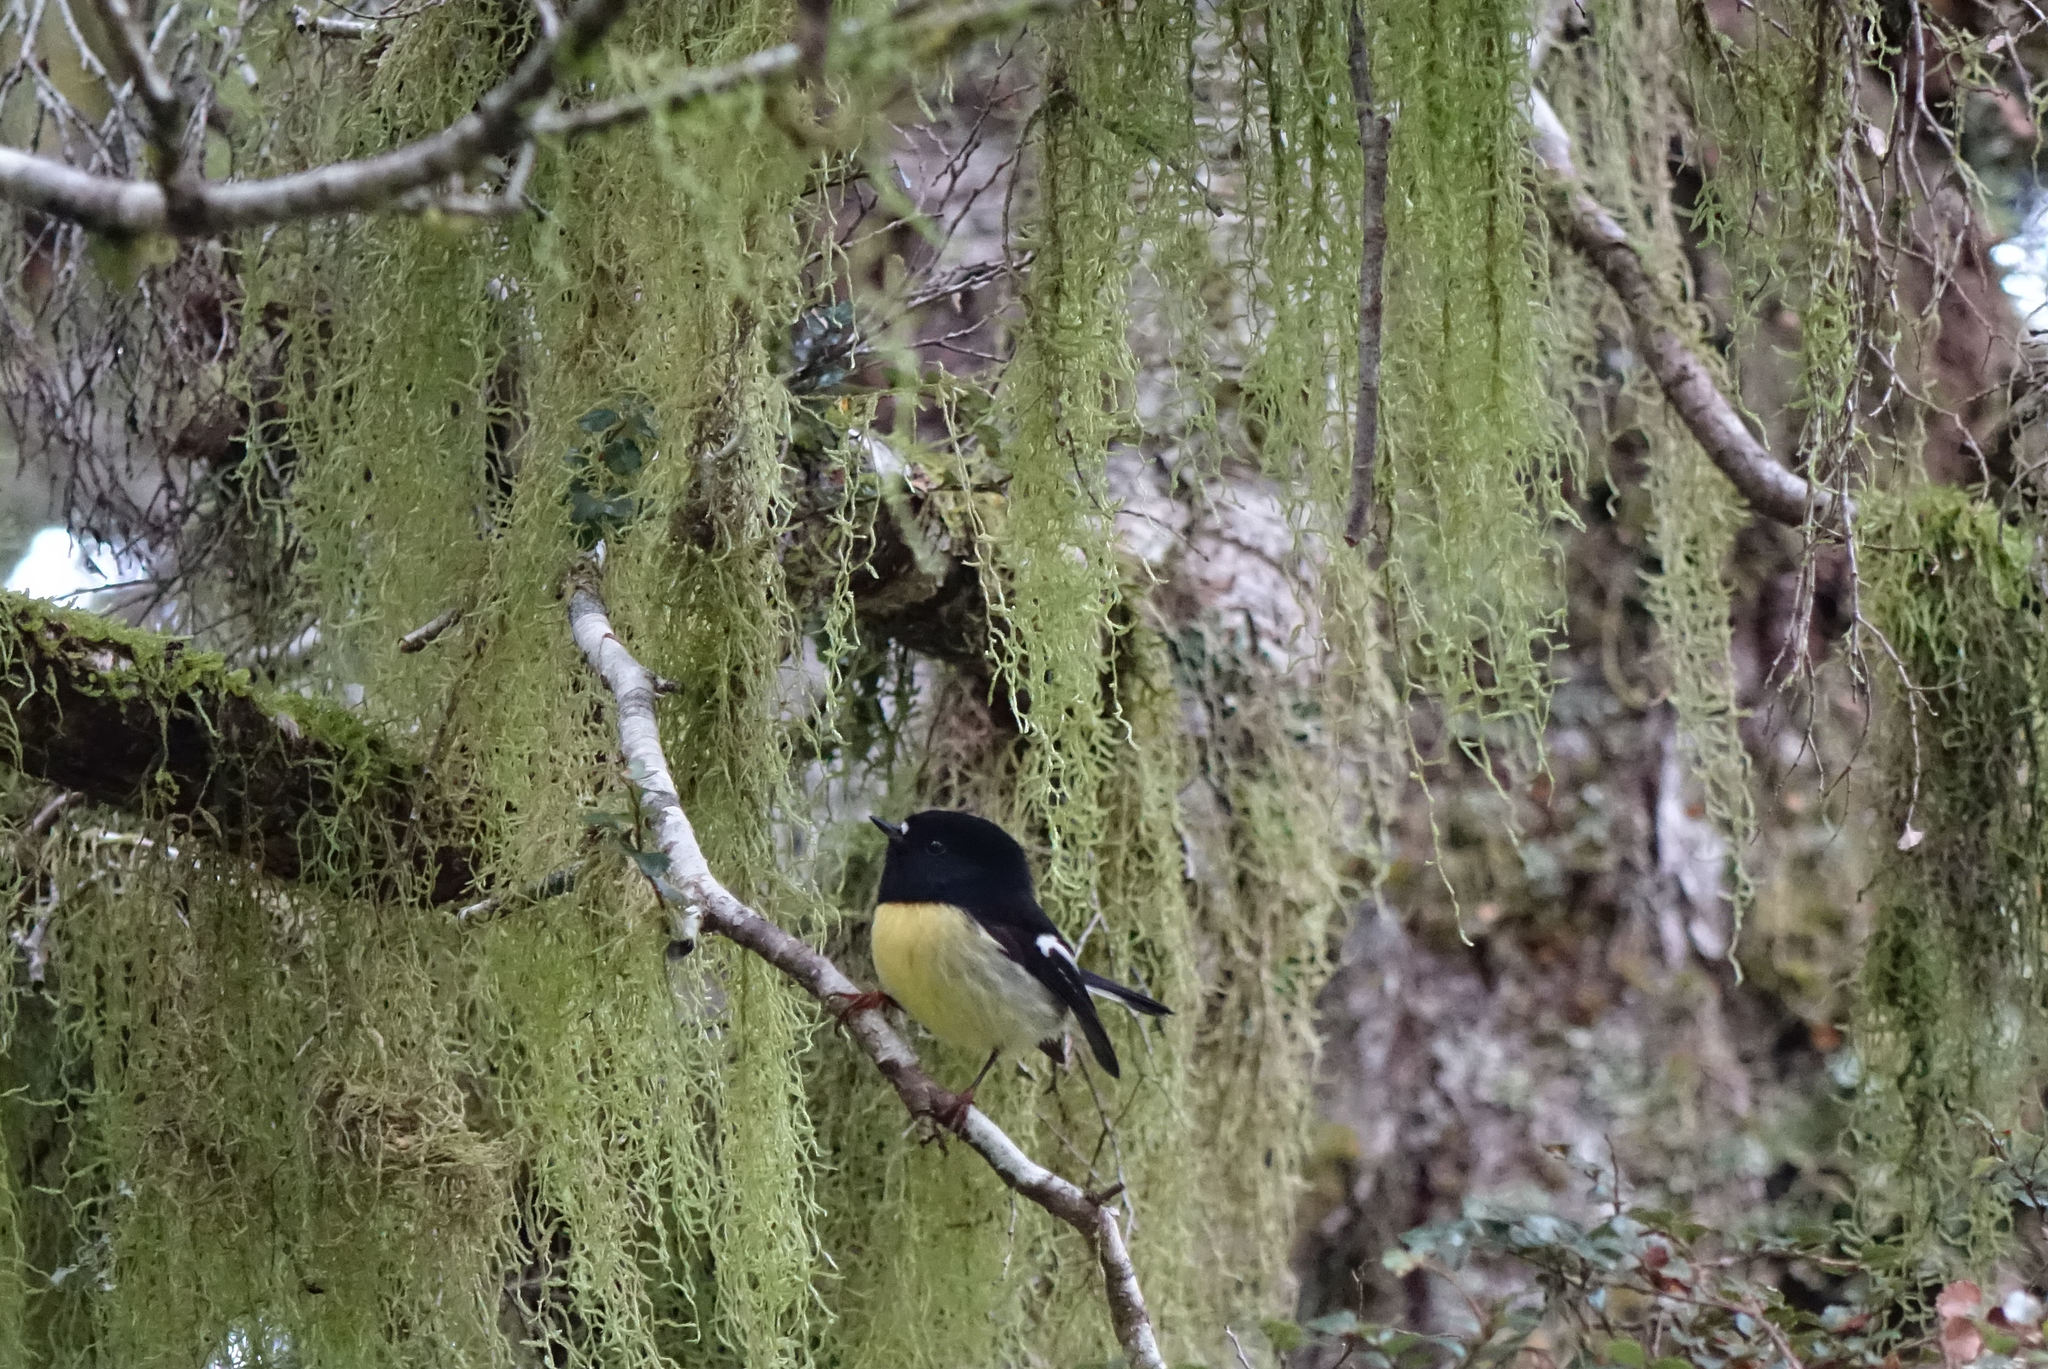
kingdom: Animalia
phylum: Chordata
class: Aves
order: Passeriformes
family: Petroicidae
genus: Petroica
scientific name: Petroica macrocephala
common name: Tomtit
